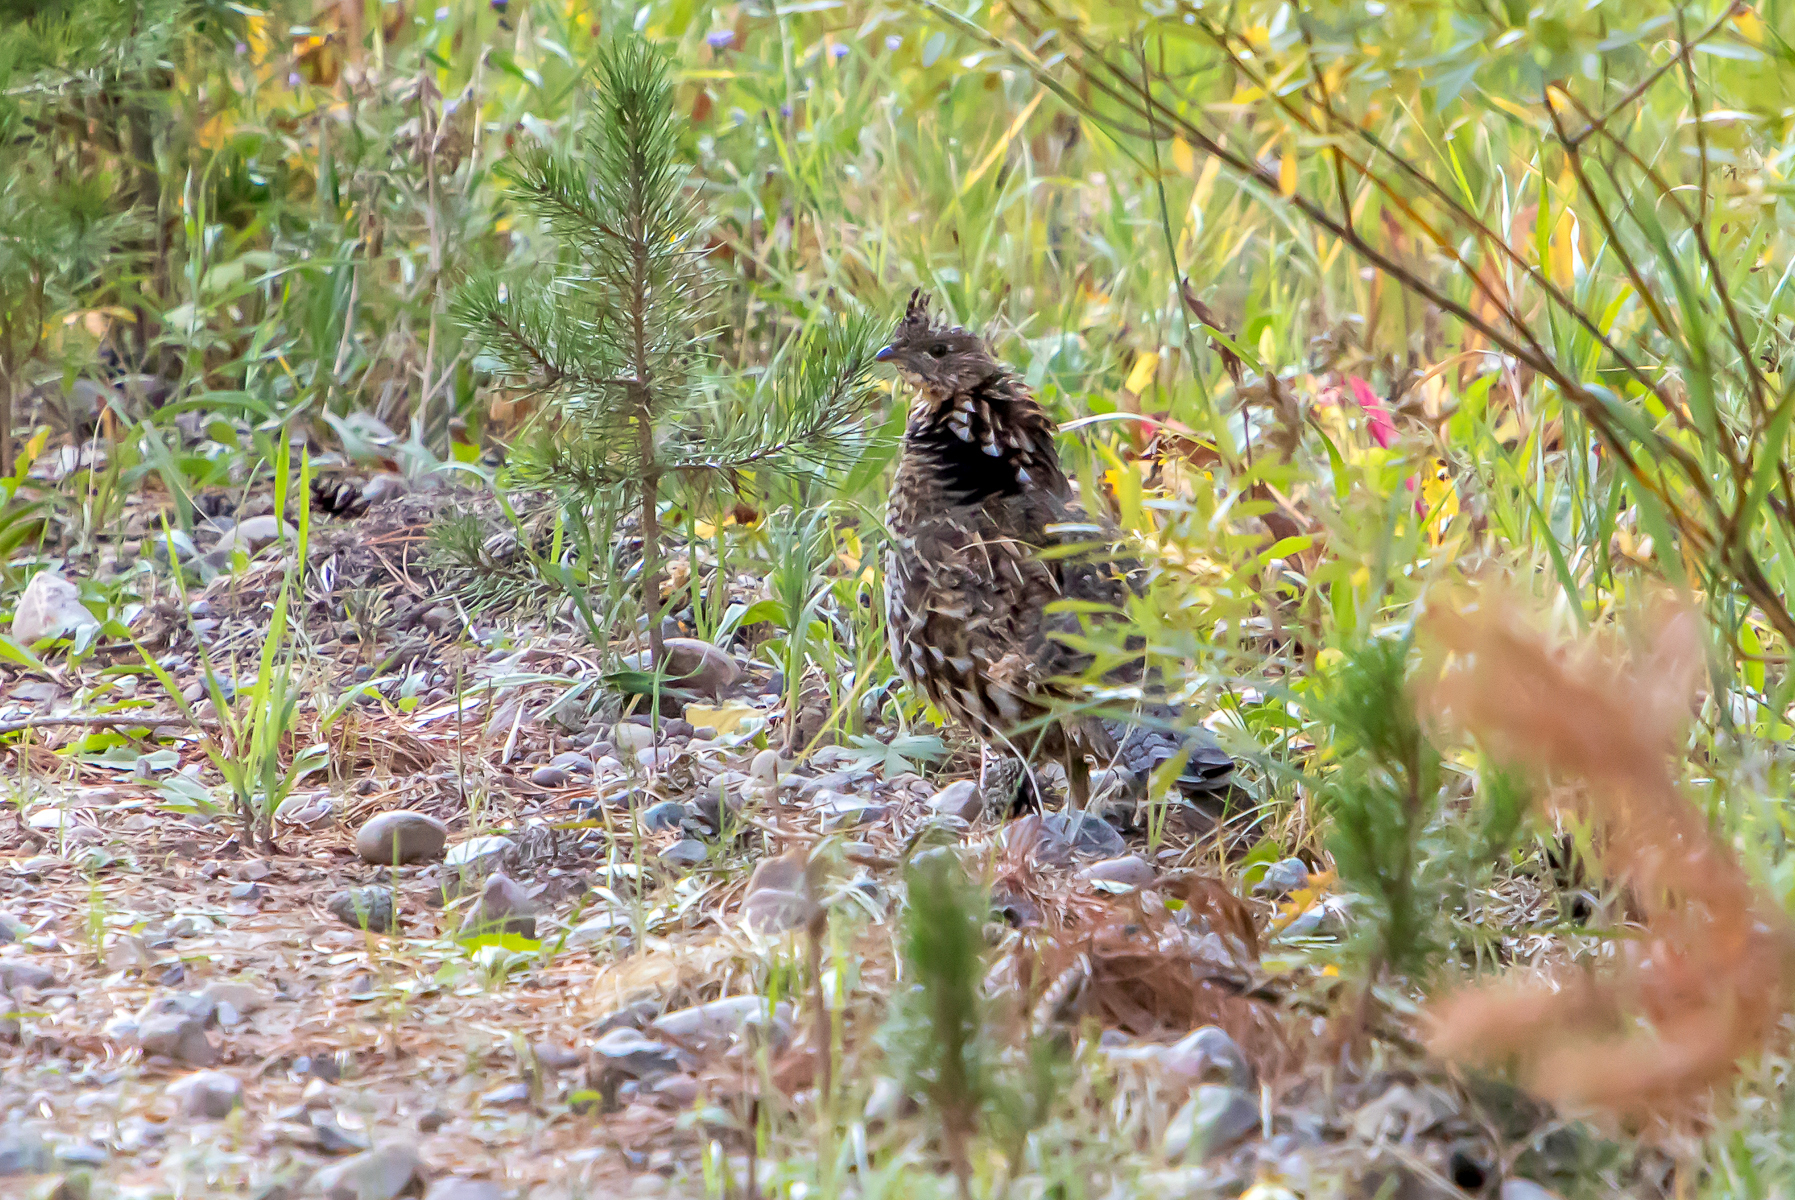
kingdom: Animalia
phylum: Chordata
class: Aves
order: Galliformes
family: Phasianidae
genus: Bonasa
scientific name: Bonasa umbellus
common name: Ruffed grouse
